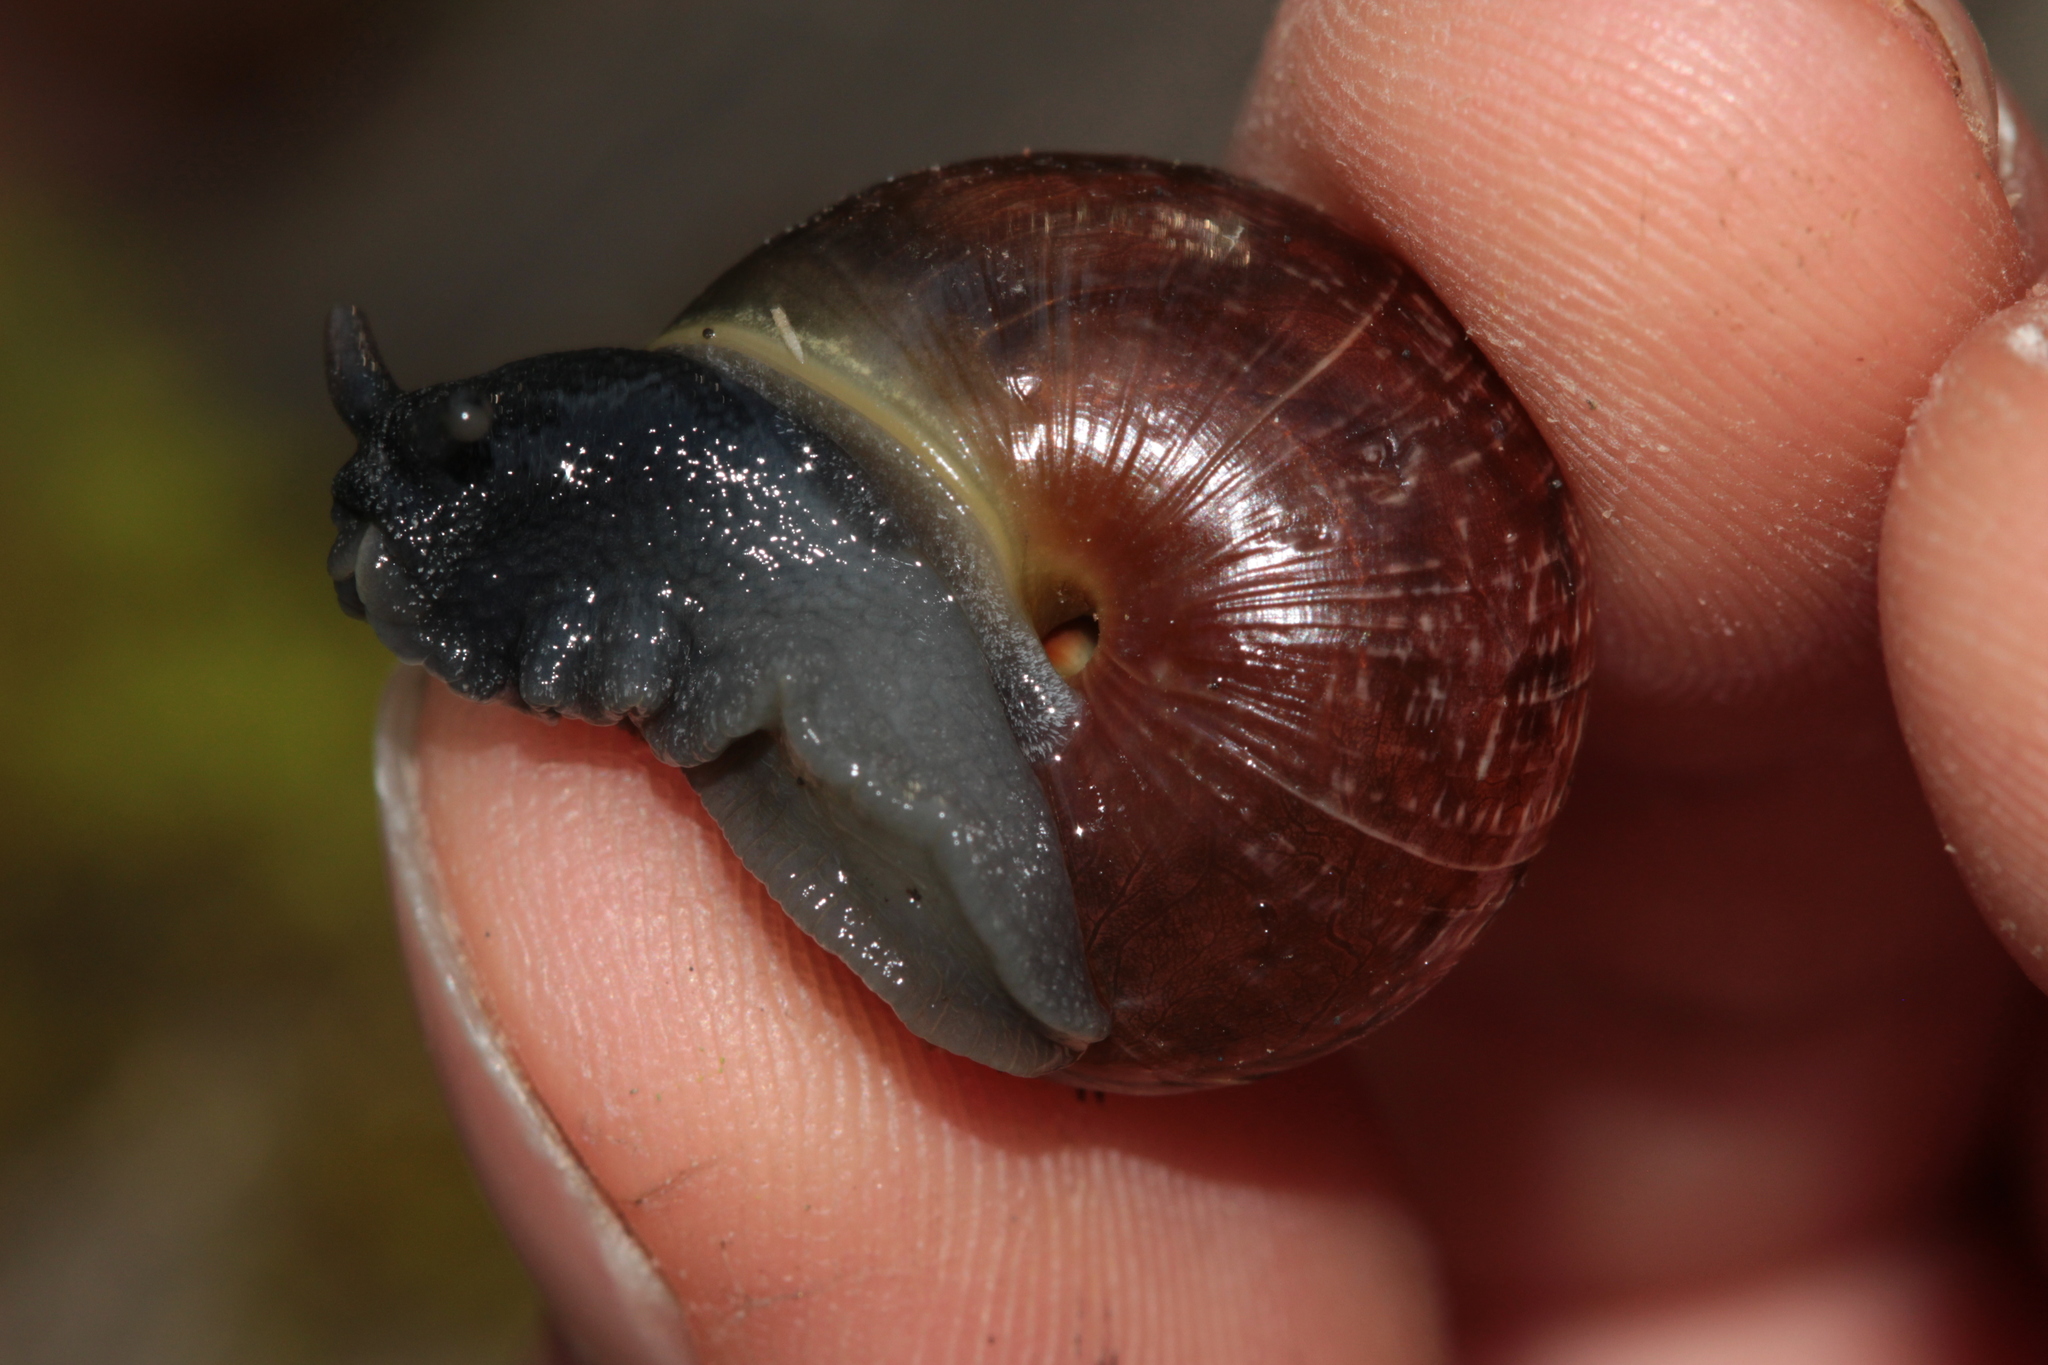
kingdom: Animalia
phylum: Mollusca
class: Gastropoda
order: Stylommatophora
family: Helicidae
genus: Arianta
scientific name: Arianta arbustorum
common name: Copse snail
